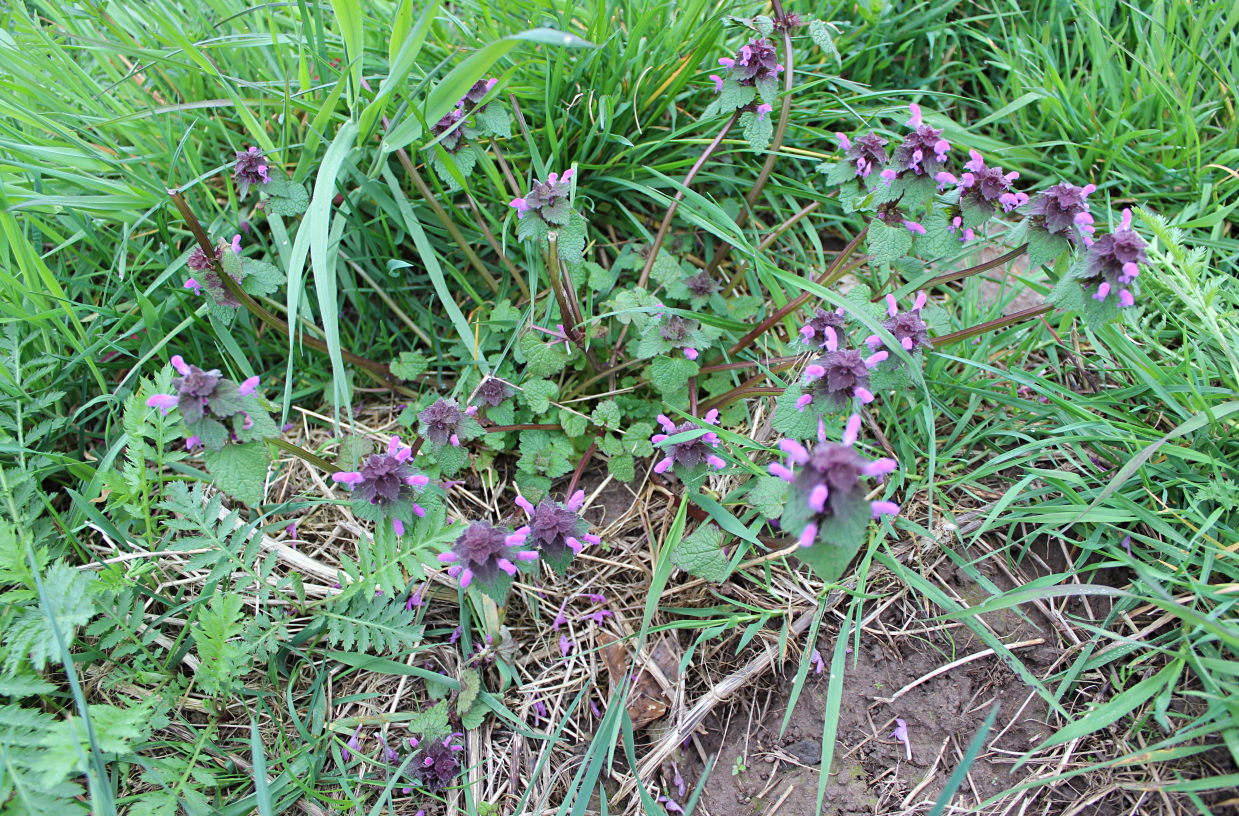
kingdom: Plantae
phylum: Tracheophyta
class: Magnoliopsida
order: Lamiales
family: Lamiaceae
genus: Lamium
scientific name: Lamium purpureum
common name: Red dead-nettle
